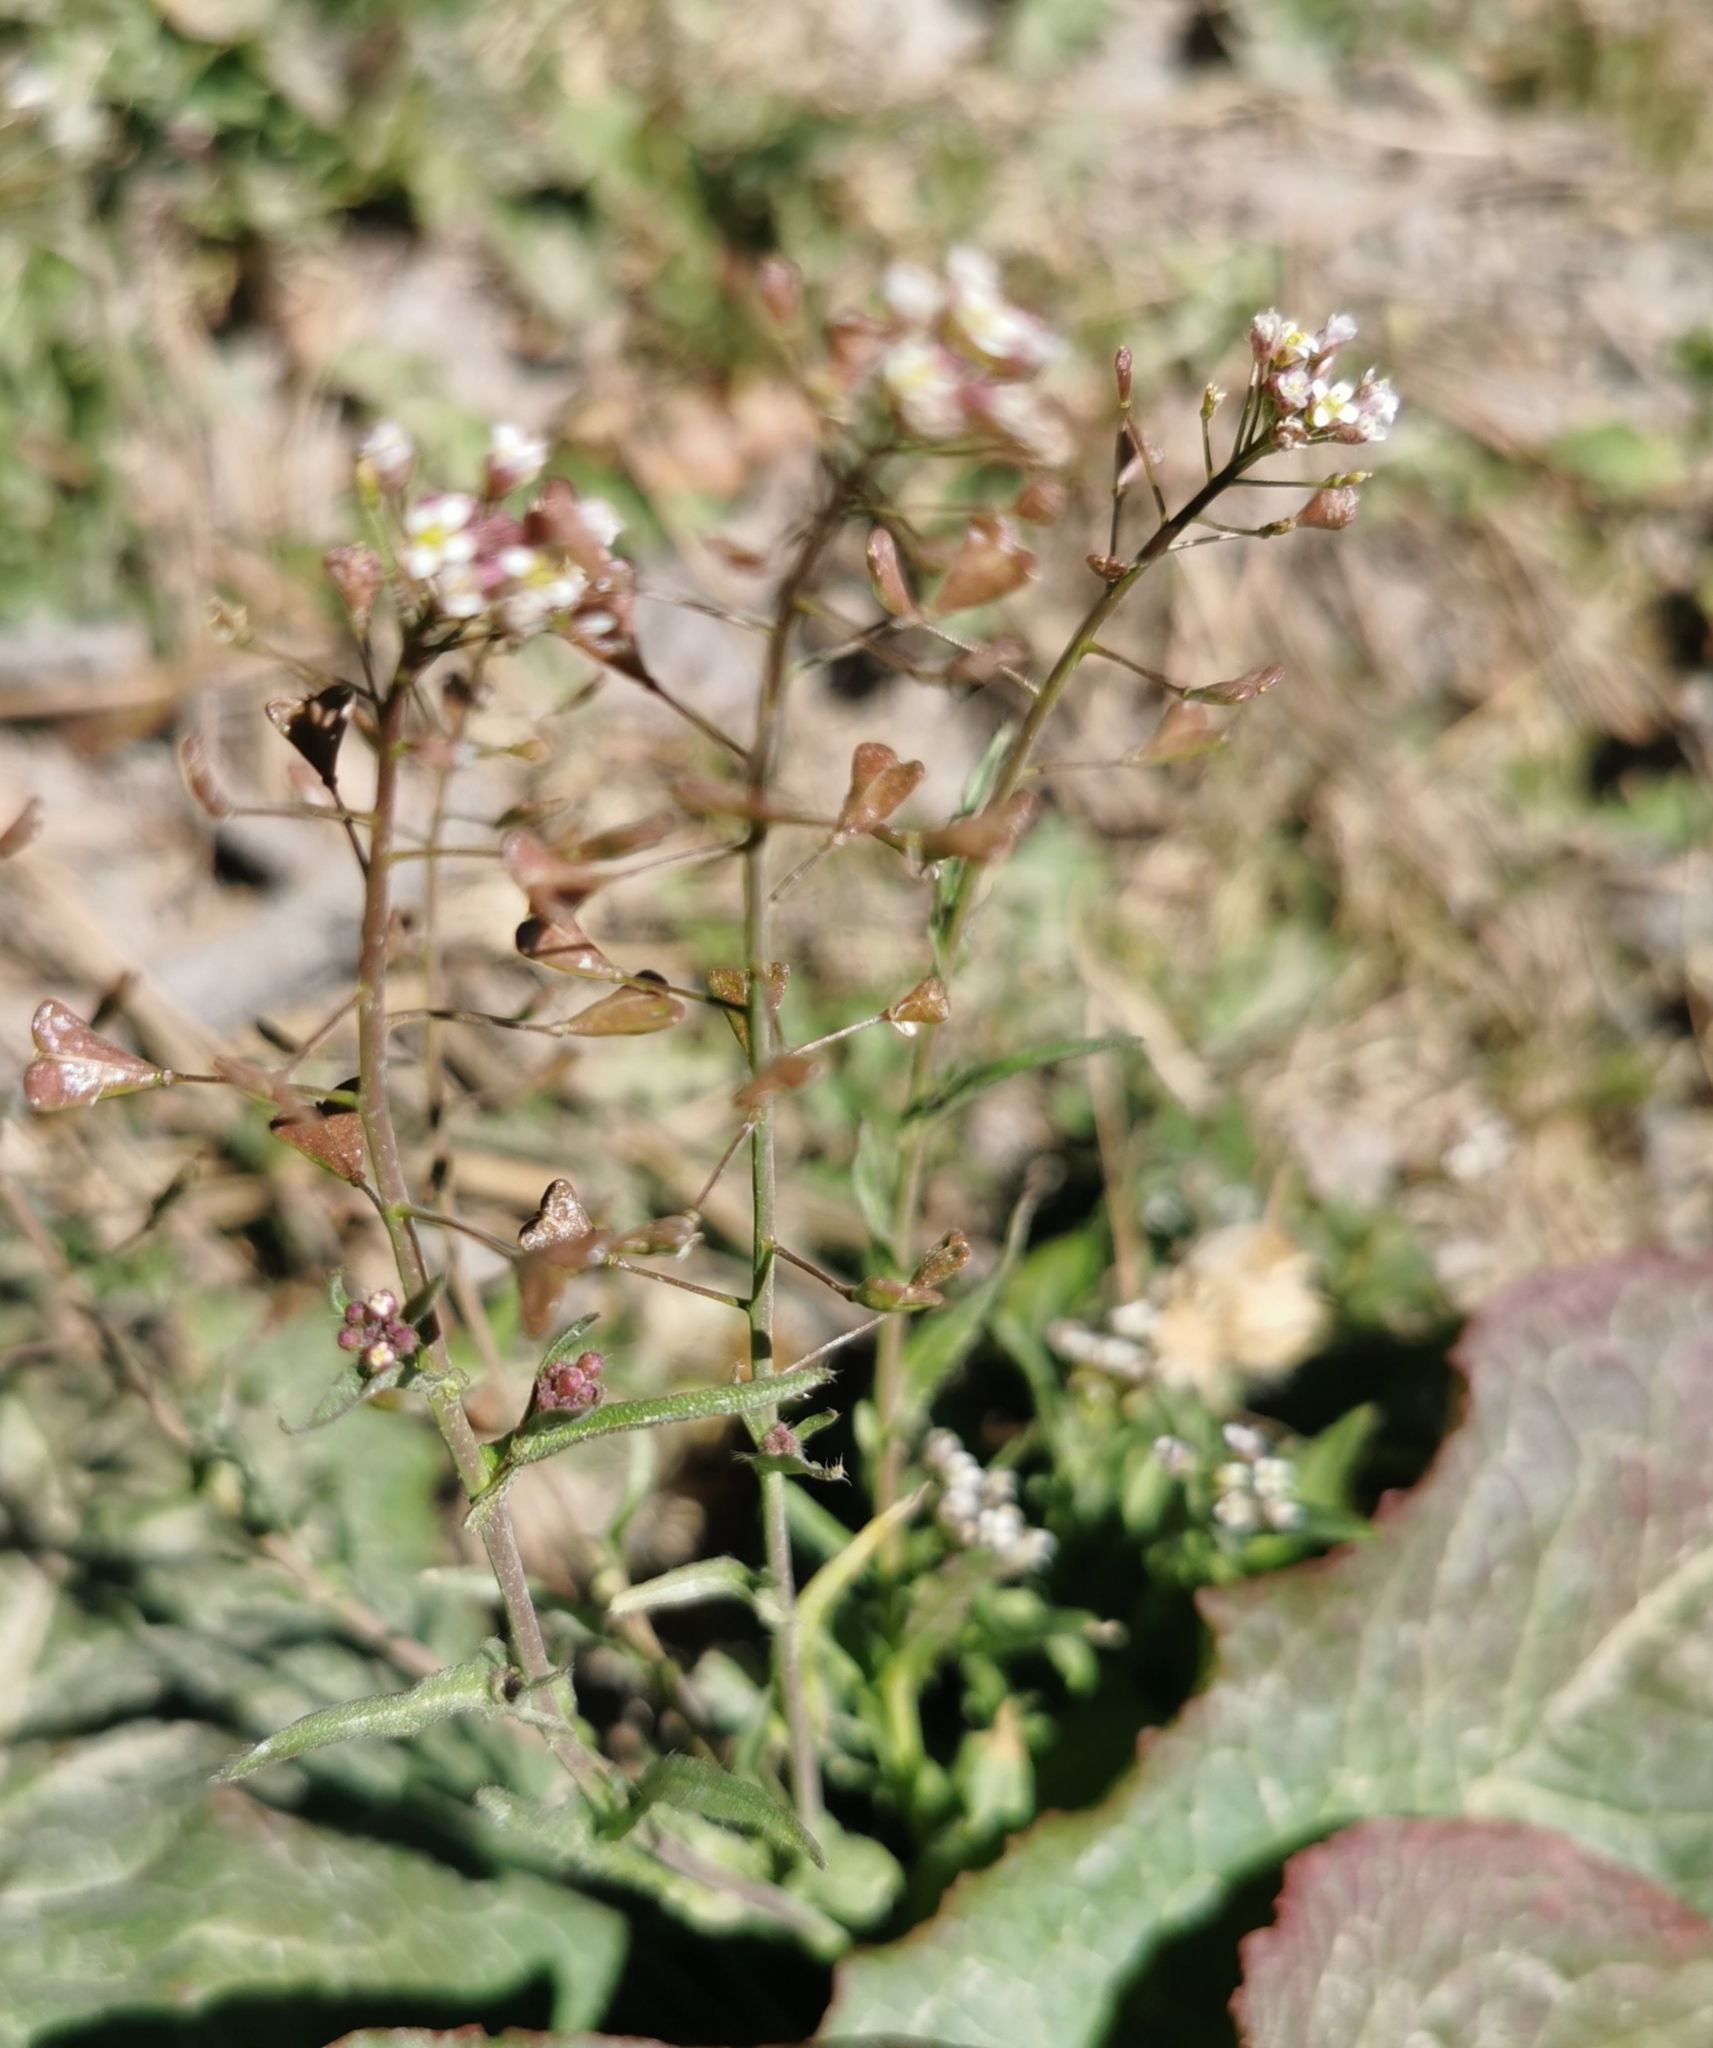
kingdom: Plantae
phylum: Tracheophyta
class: Magnoliopsida
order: Brassicales
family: Brassicaceae
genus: Capsella
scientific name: Capsella bursa-pastoris
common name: Shepherd's purse
